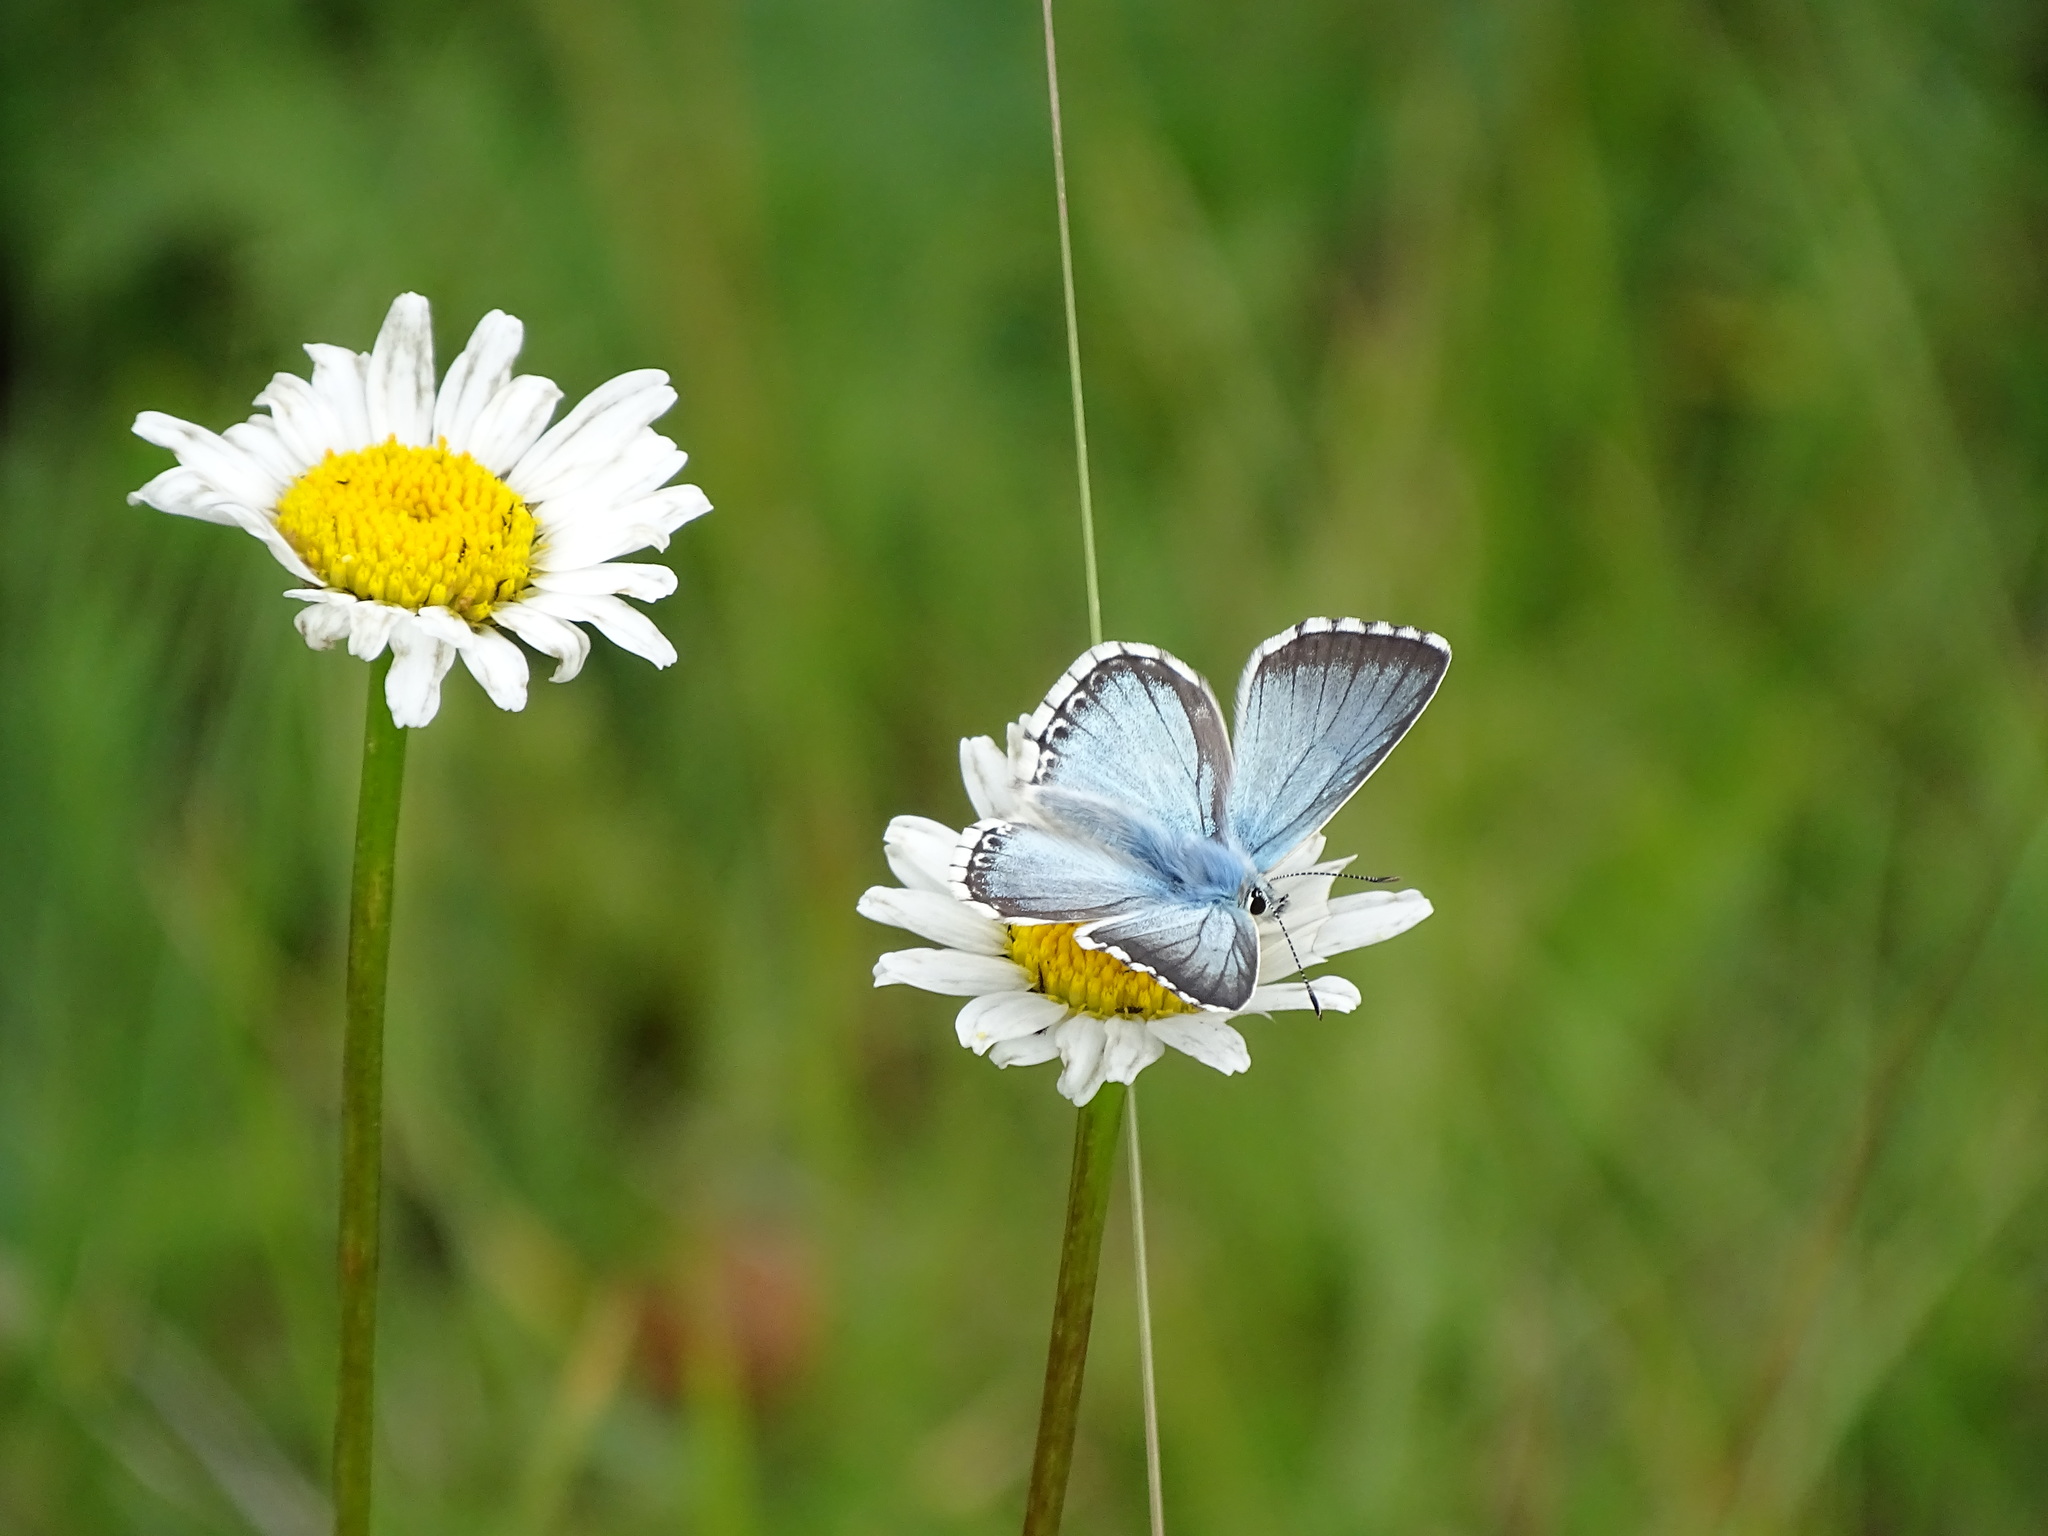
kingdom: Animalia
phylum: Arthropoda
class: Insecta
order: Lepidoptera
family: Lycaenidae
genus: Lysandra
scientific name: Lysandra coridon
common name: Chalkhill blue
